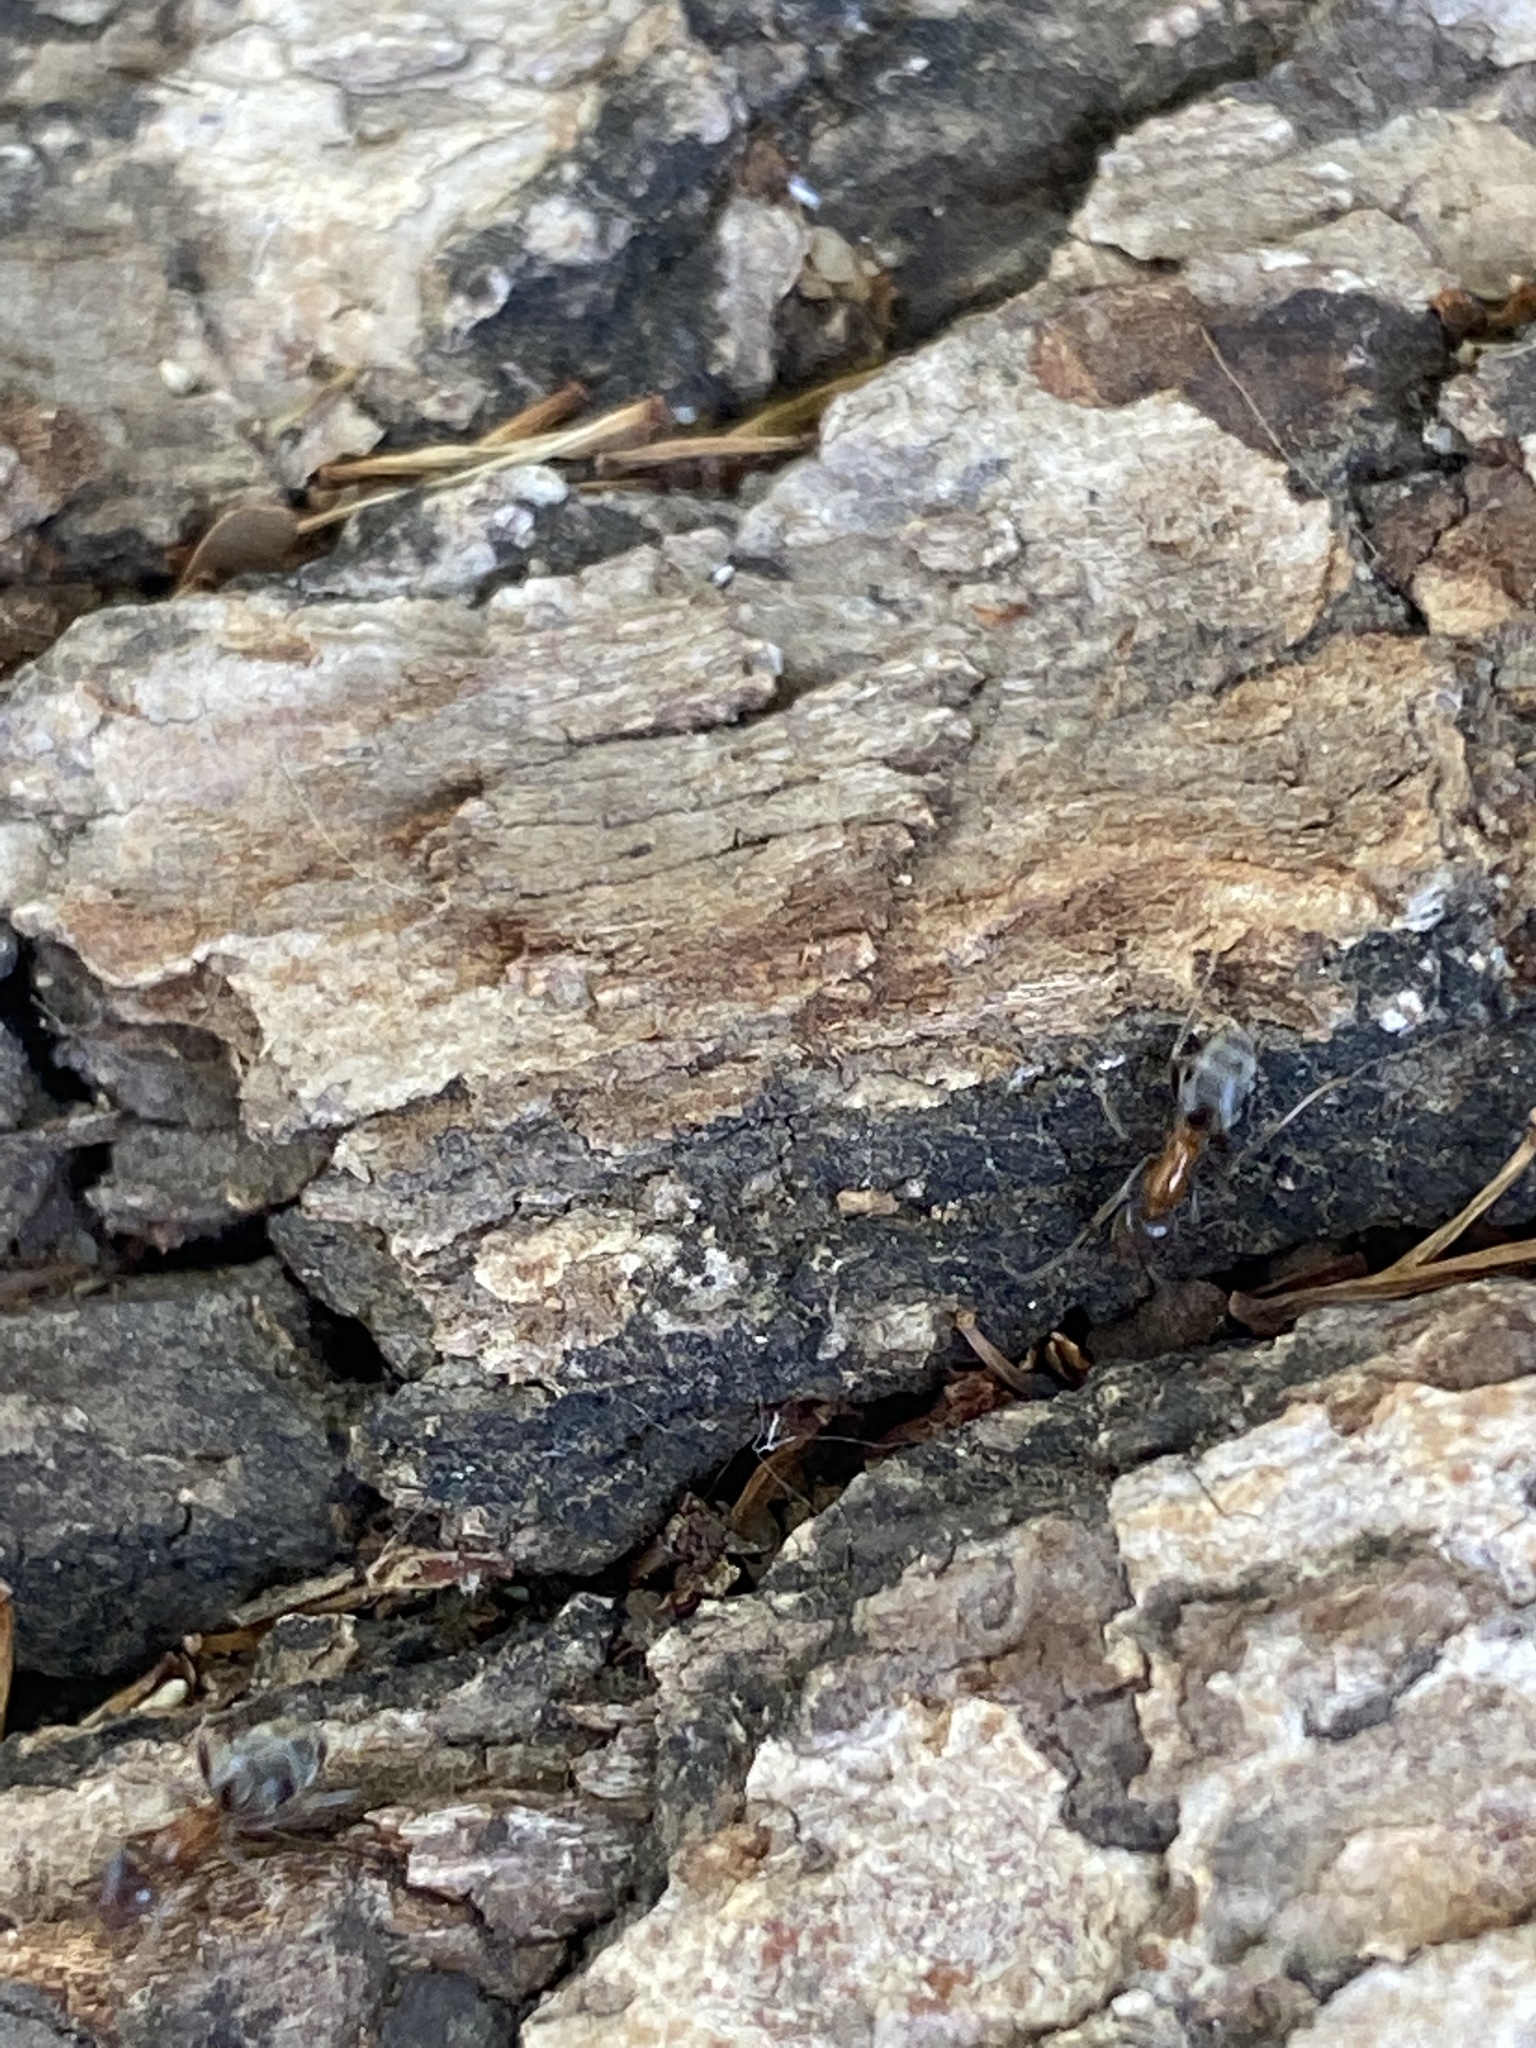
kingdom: Animalia
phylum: Arthropoda
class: Insecta
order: Hymenoptera
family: Formicidae
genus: Liometopum
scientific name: Liometopum occidentale
